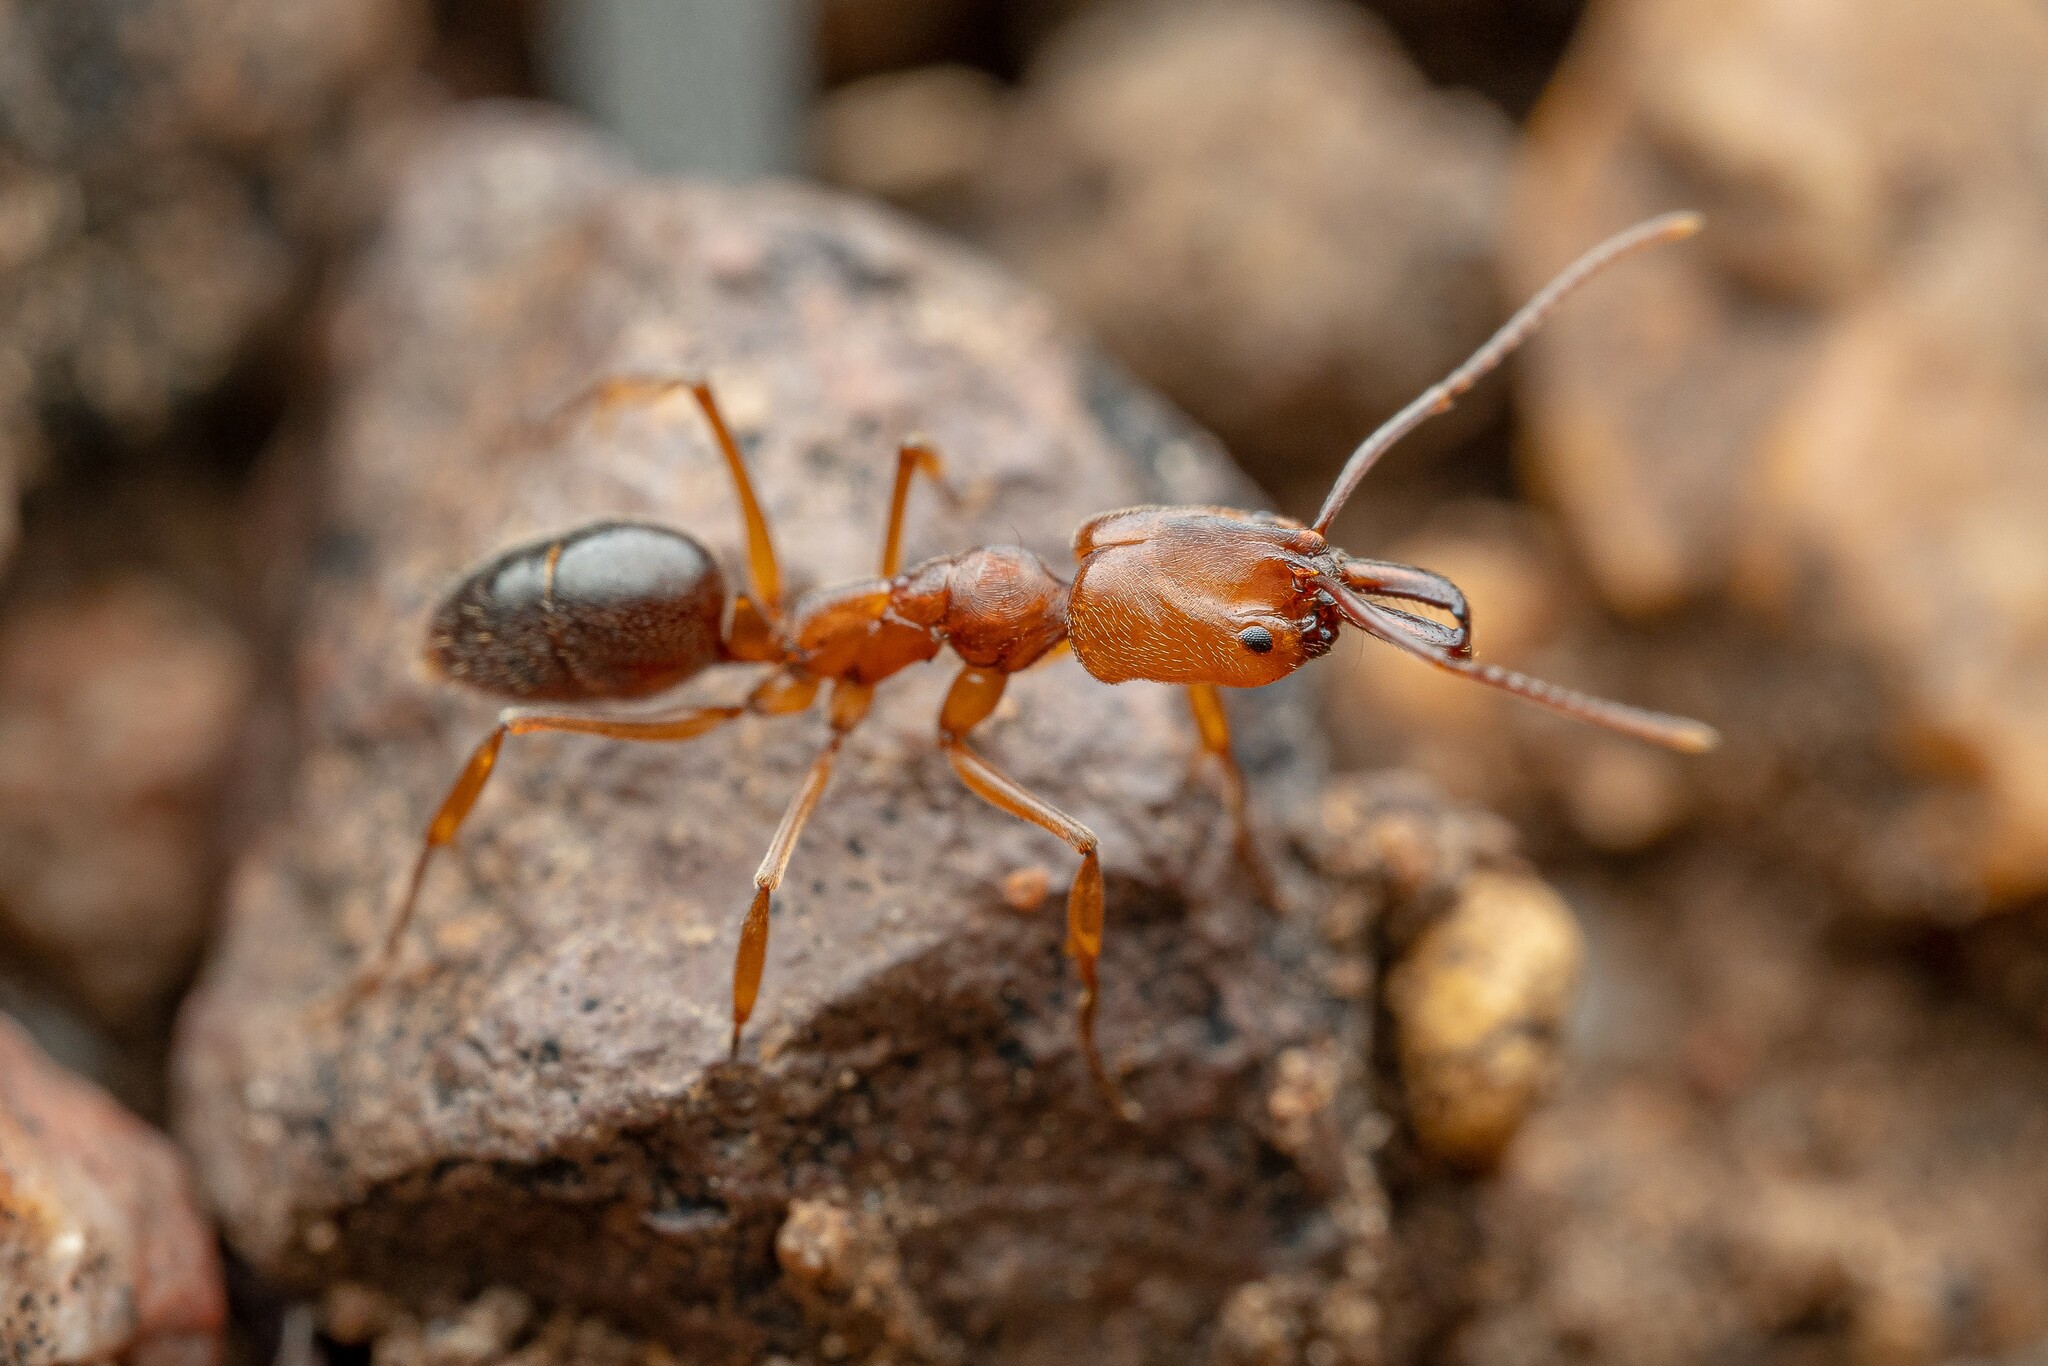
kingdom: Animalia
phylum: Arthropoda
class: Insecta
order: Hymenoptera
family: Formicidae
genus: Odontomachus
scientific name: Odontomachus clarus
